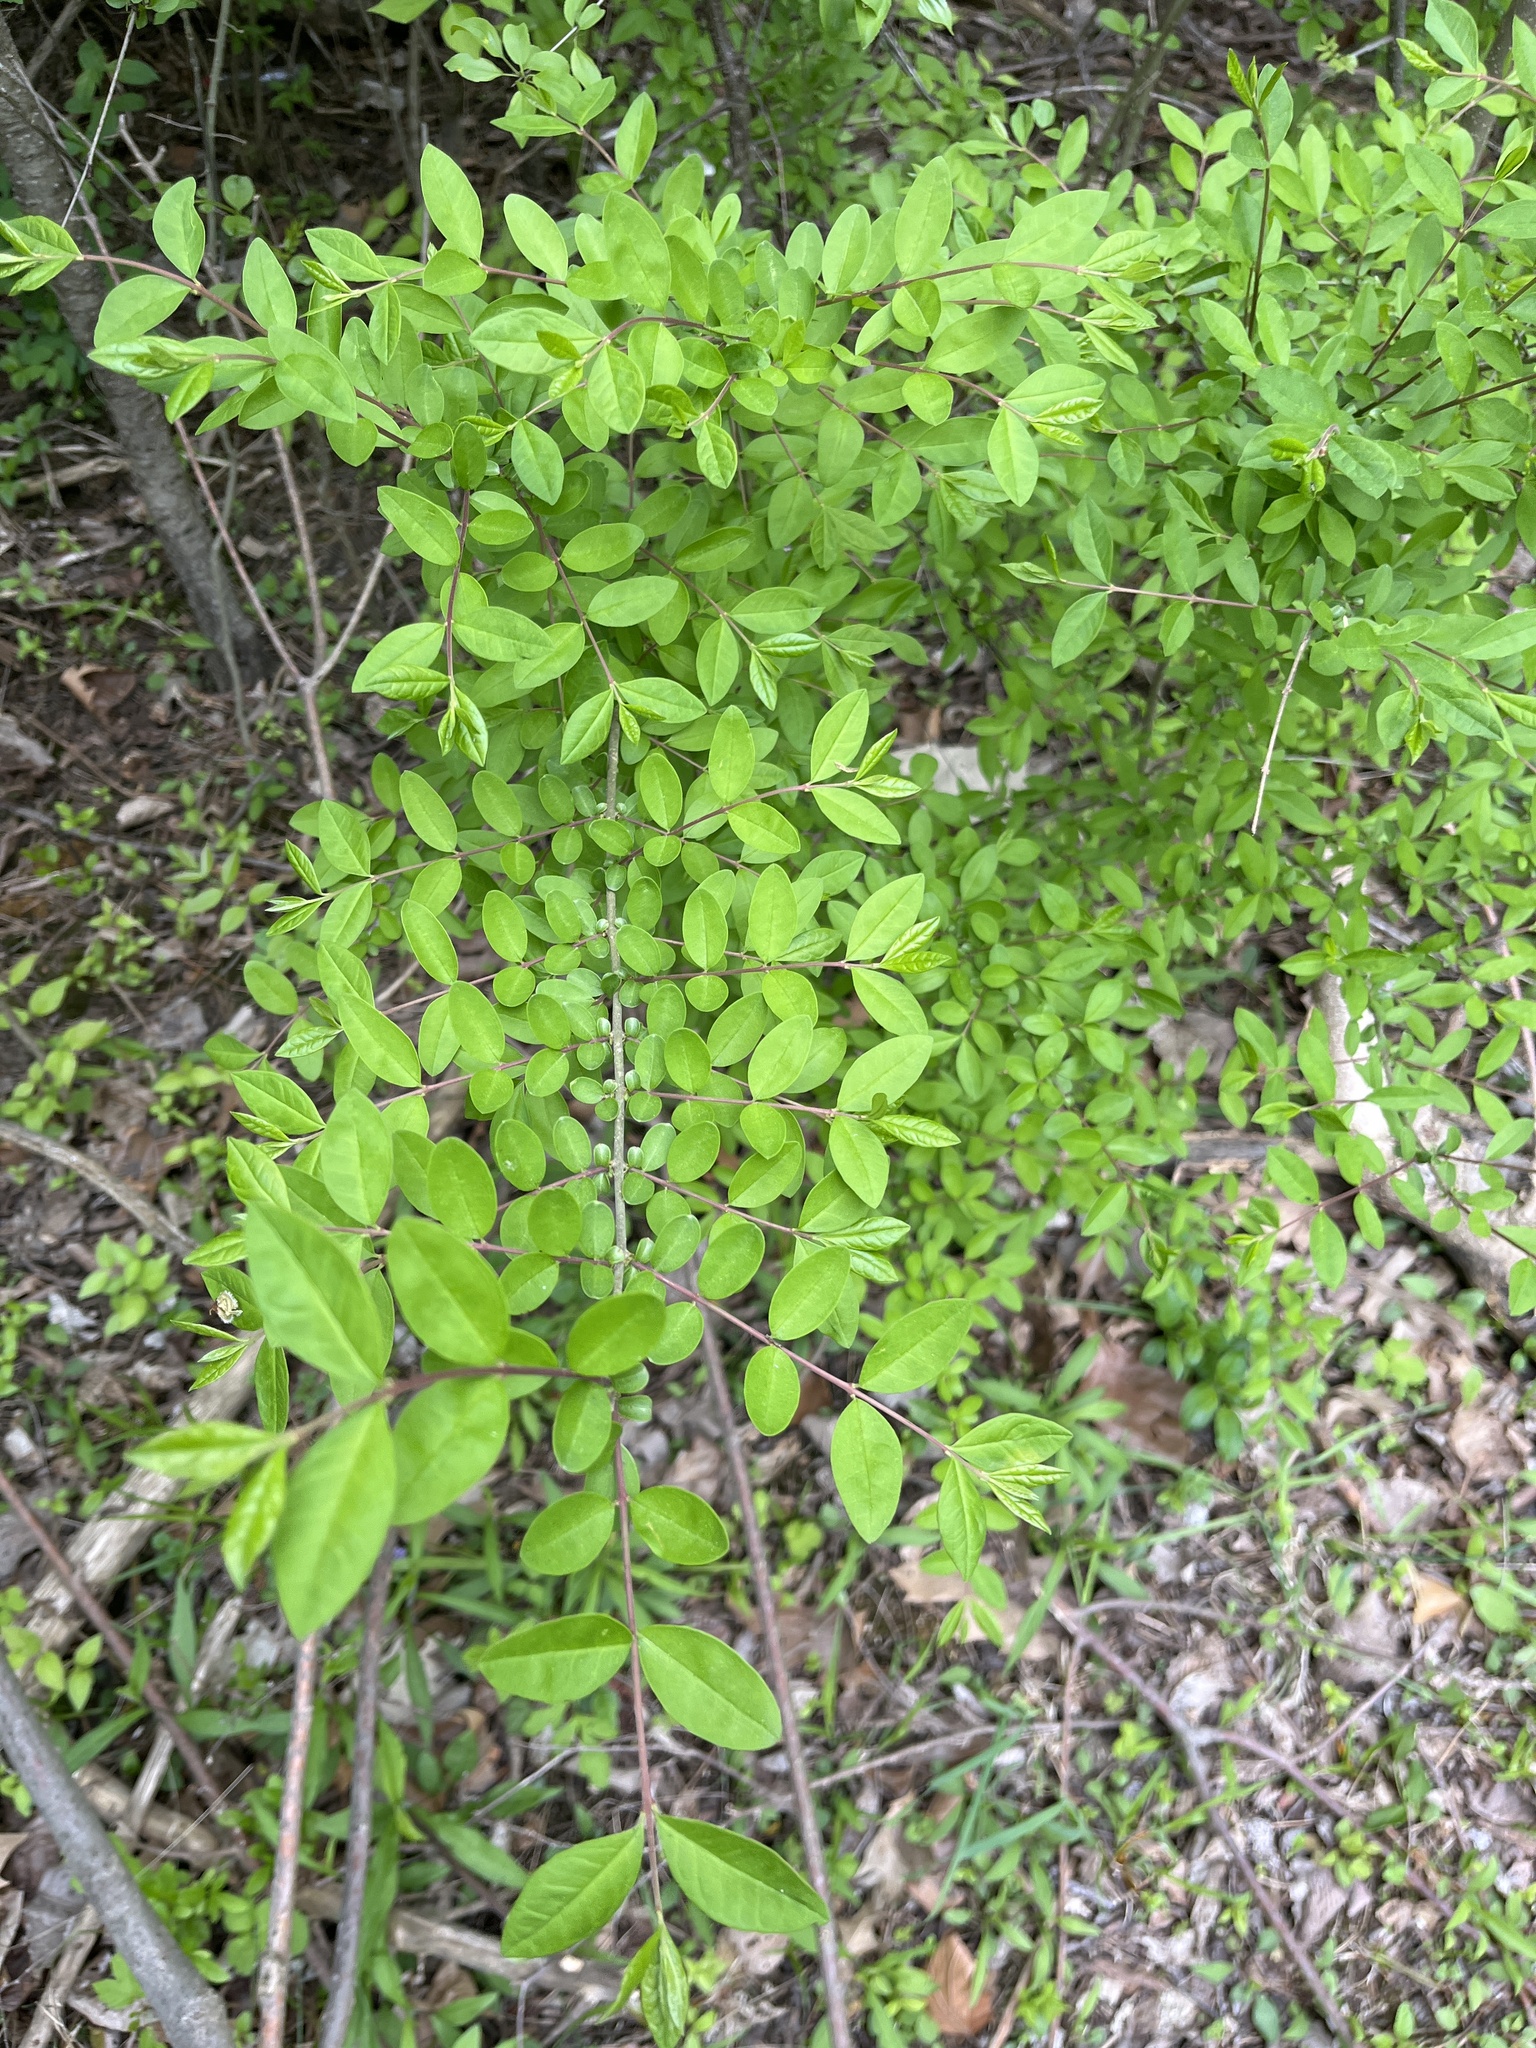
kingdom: Plantae
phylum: Tracheophyta
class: Magnoliopsida
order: Lamiales
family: Oleaceae
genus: Ligustrum
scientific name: Ligustrum obtusifolium
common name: Border privet
